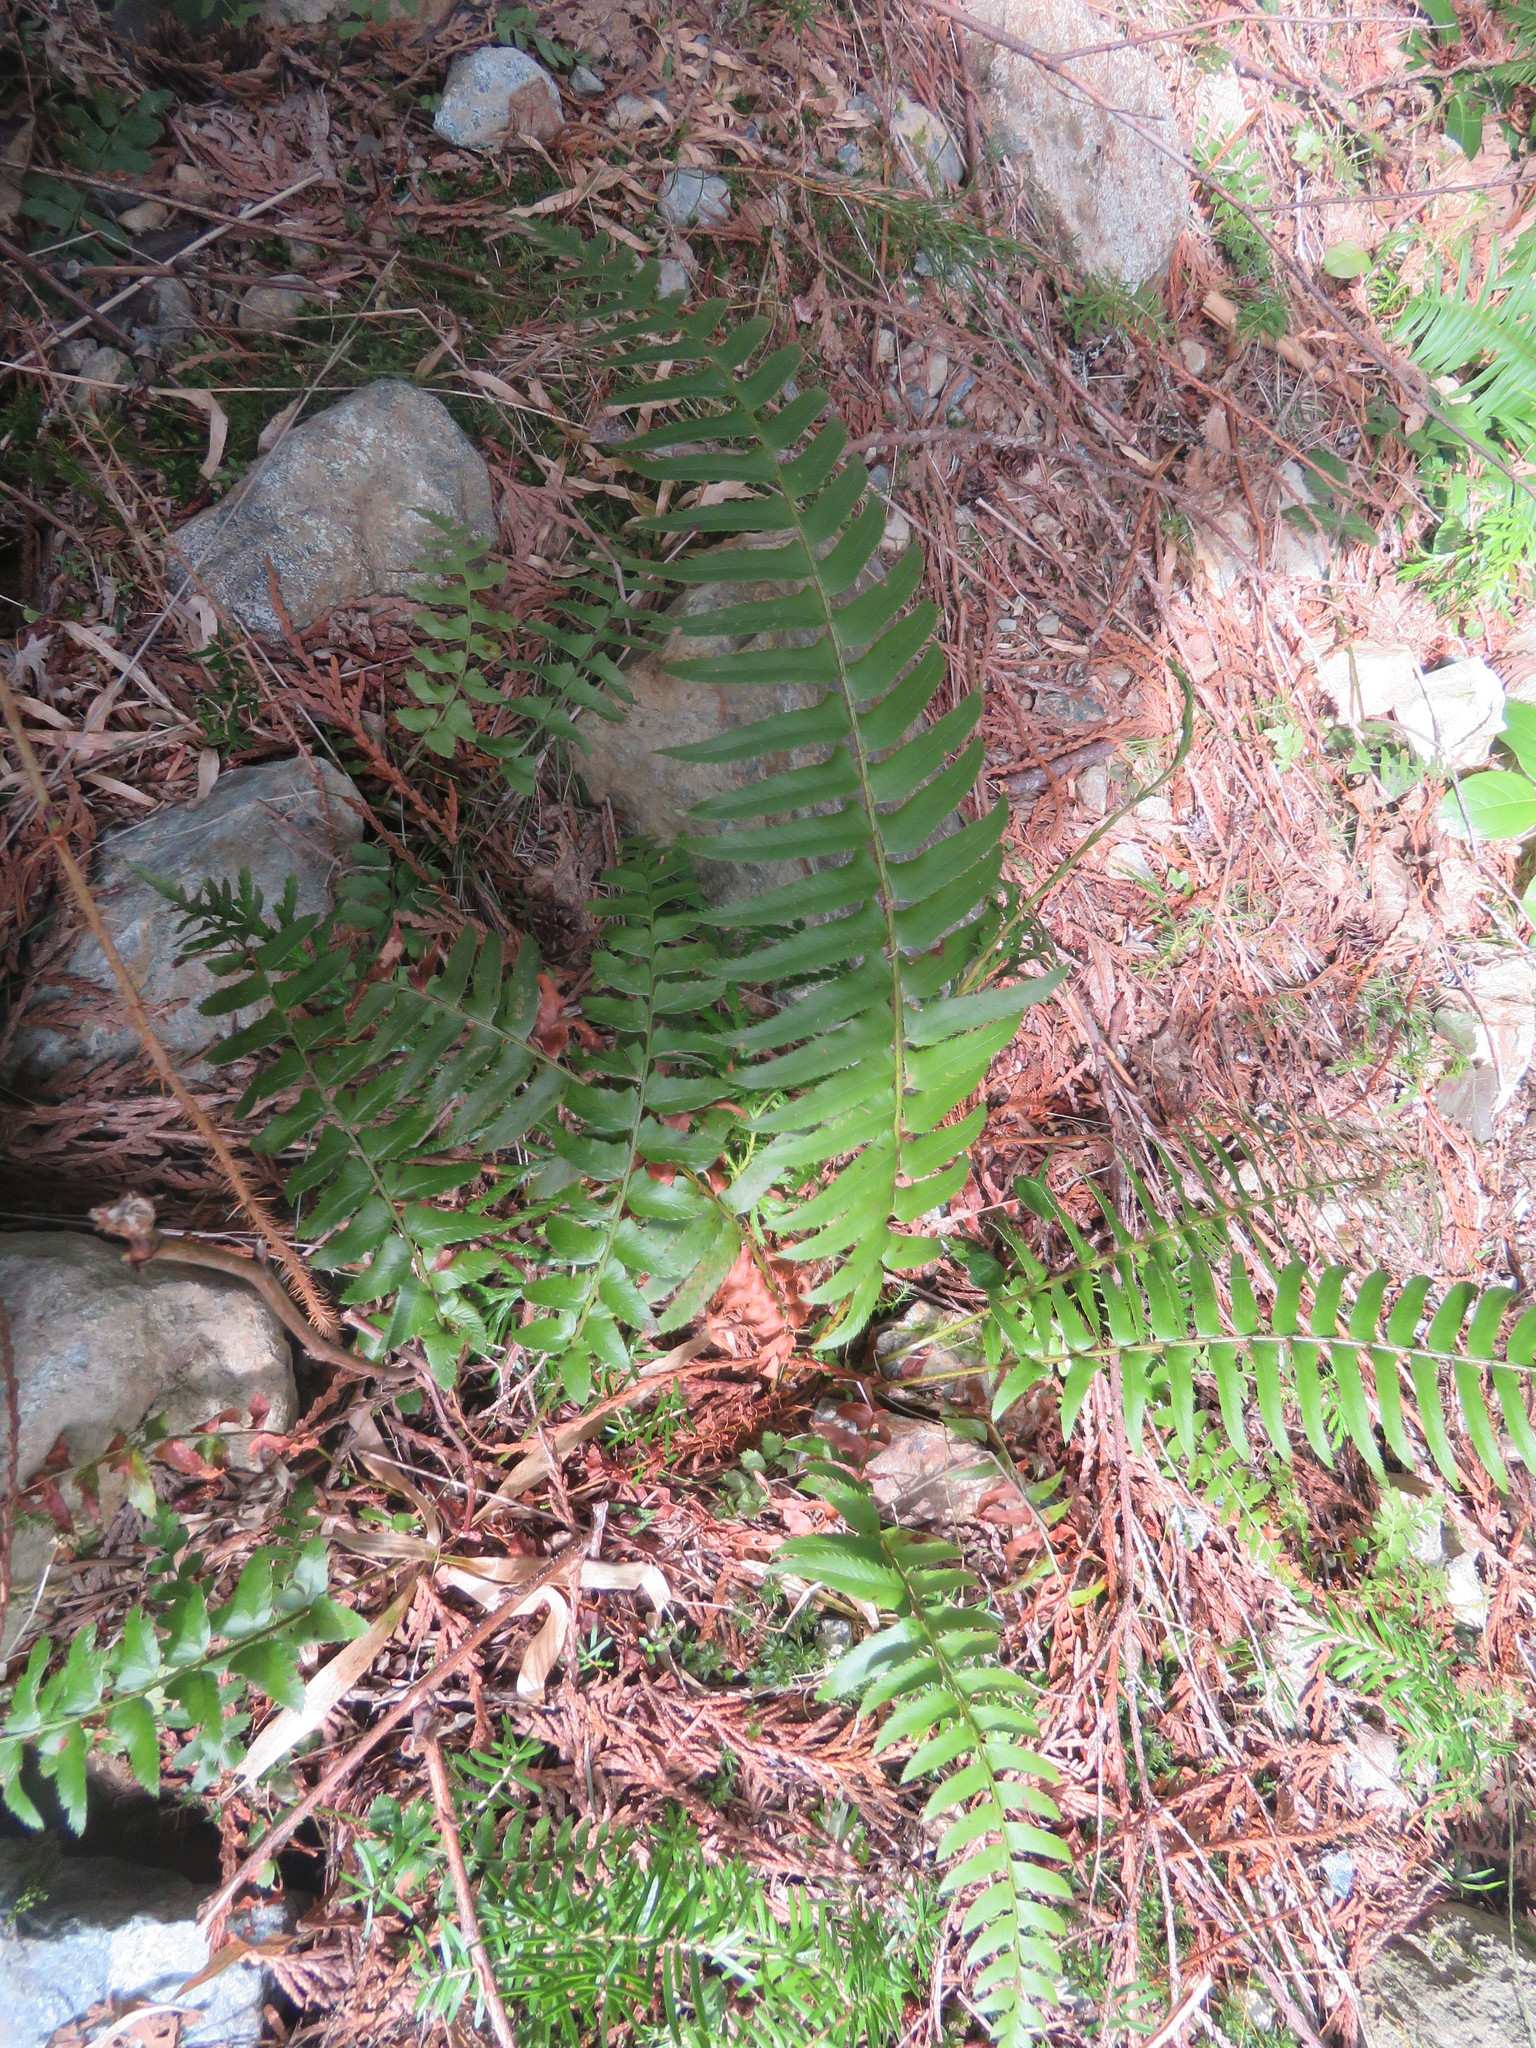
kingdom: Plantae
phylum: Tracheophyta
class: Polypodiopsida
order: Polypodiales
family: Dryopteridaceae
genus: Polystichum
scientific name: Polystichum munitum
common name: Western sword-fern
